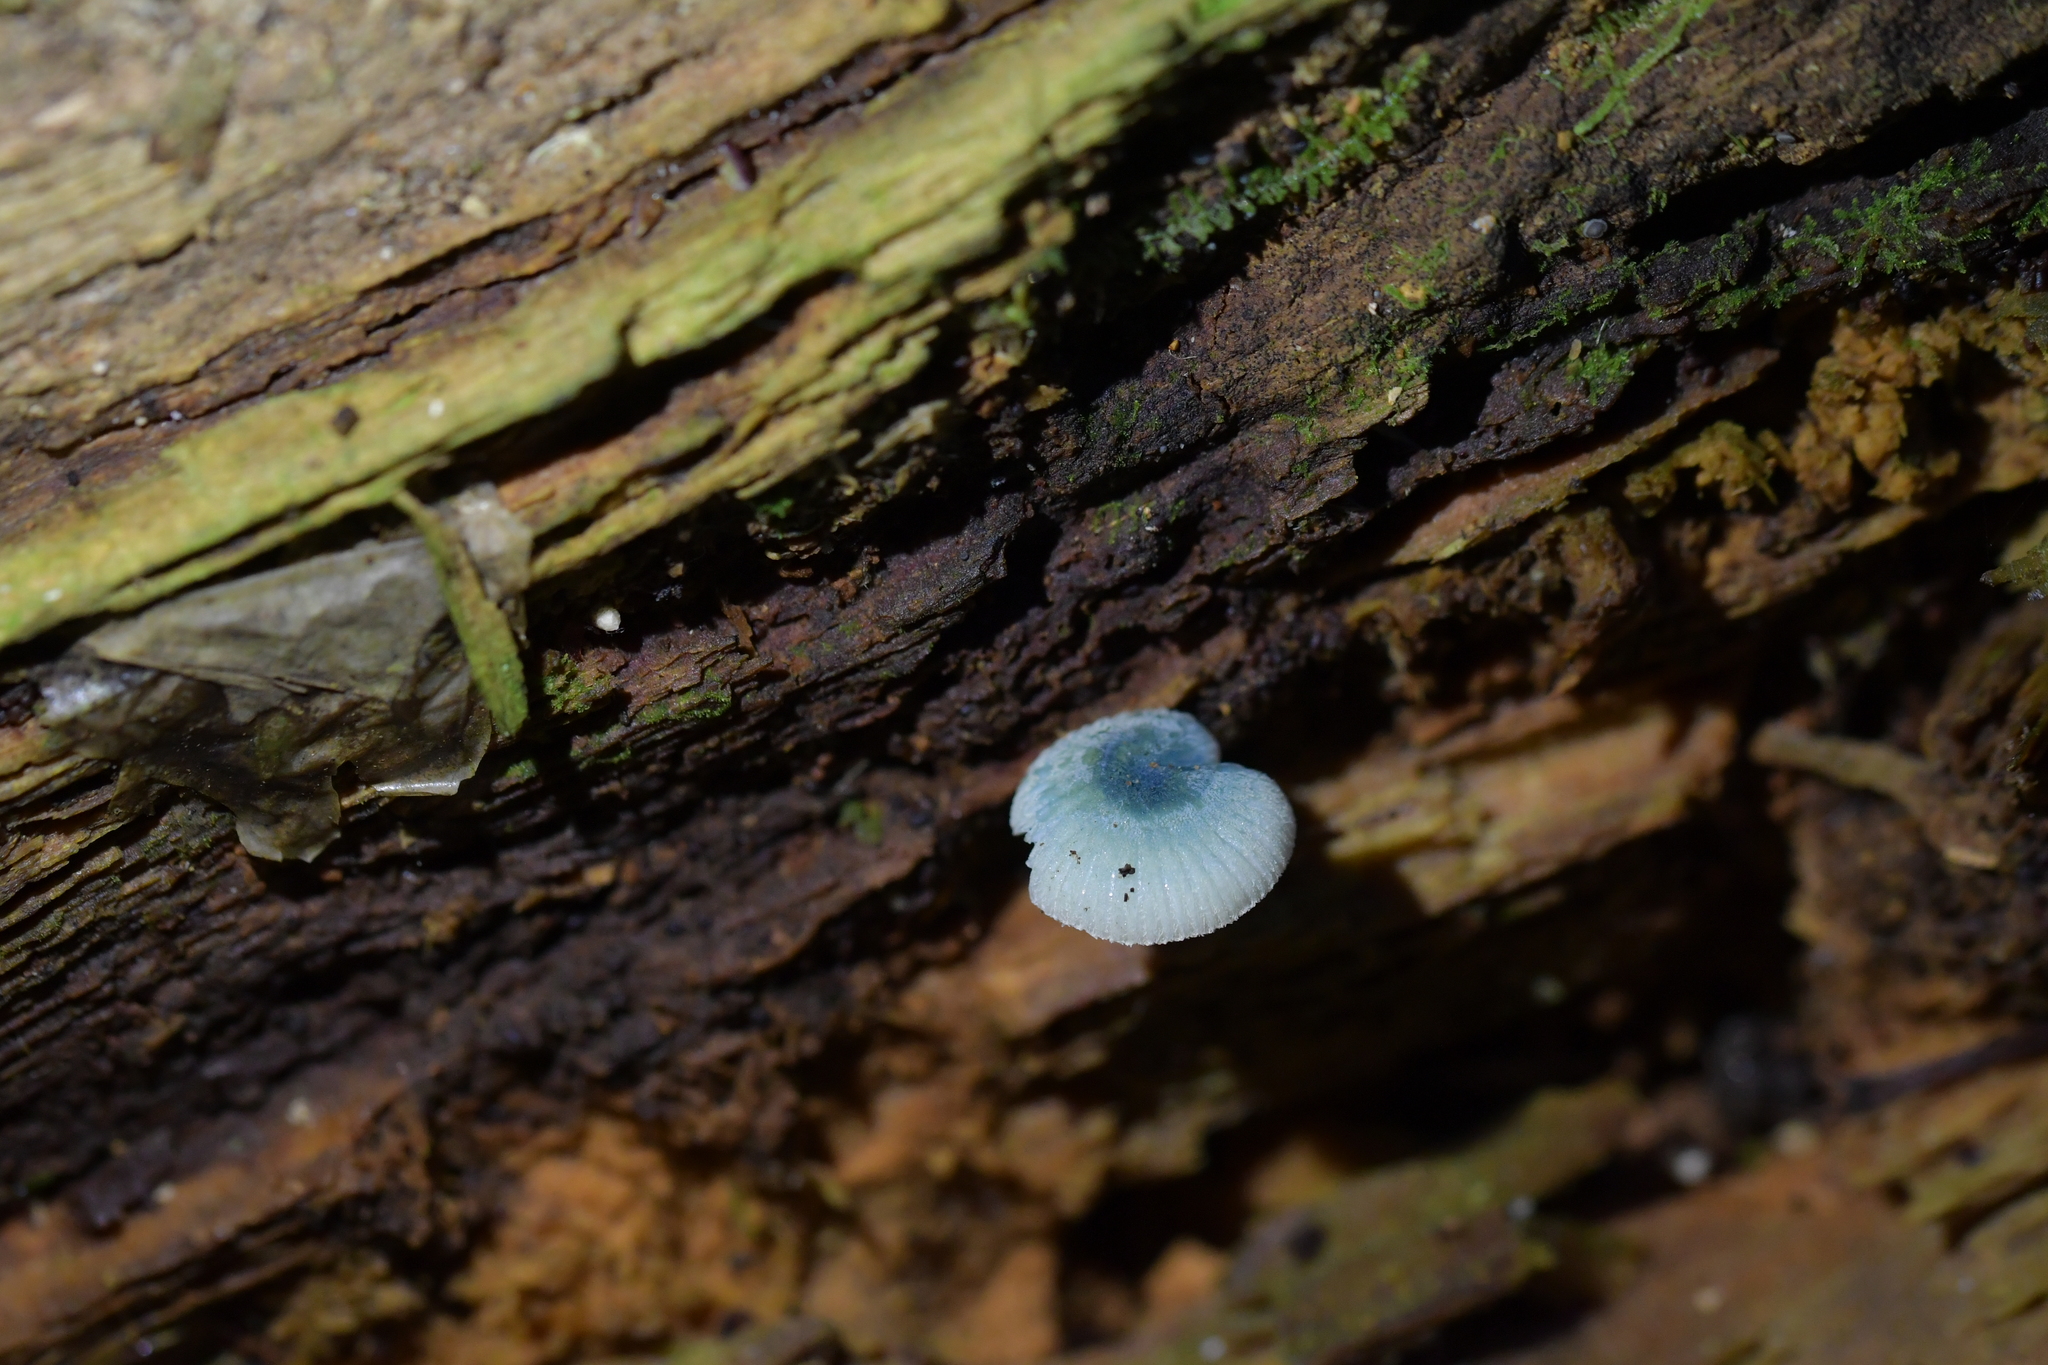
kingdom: Fungi
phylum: Basidiomycota
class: Agaricomycetes
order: Agaricales
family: Mycenaceae
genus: Mycena
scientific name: Mycena interrupta
